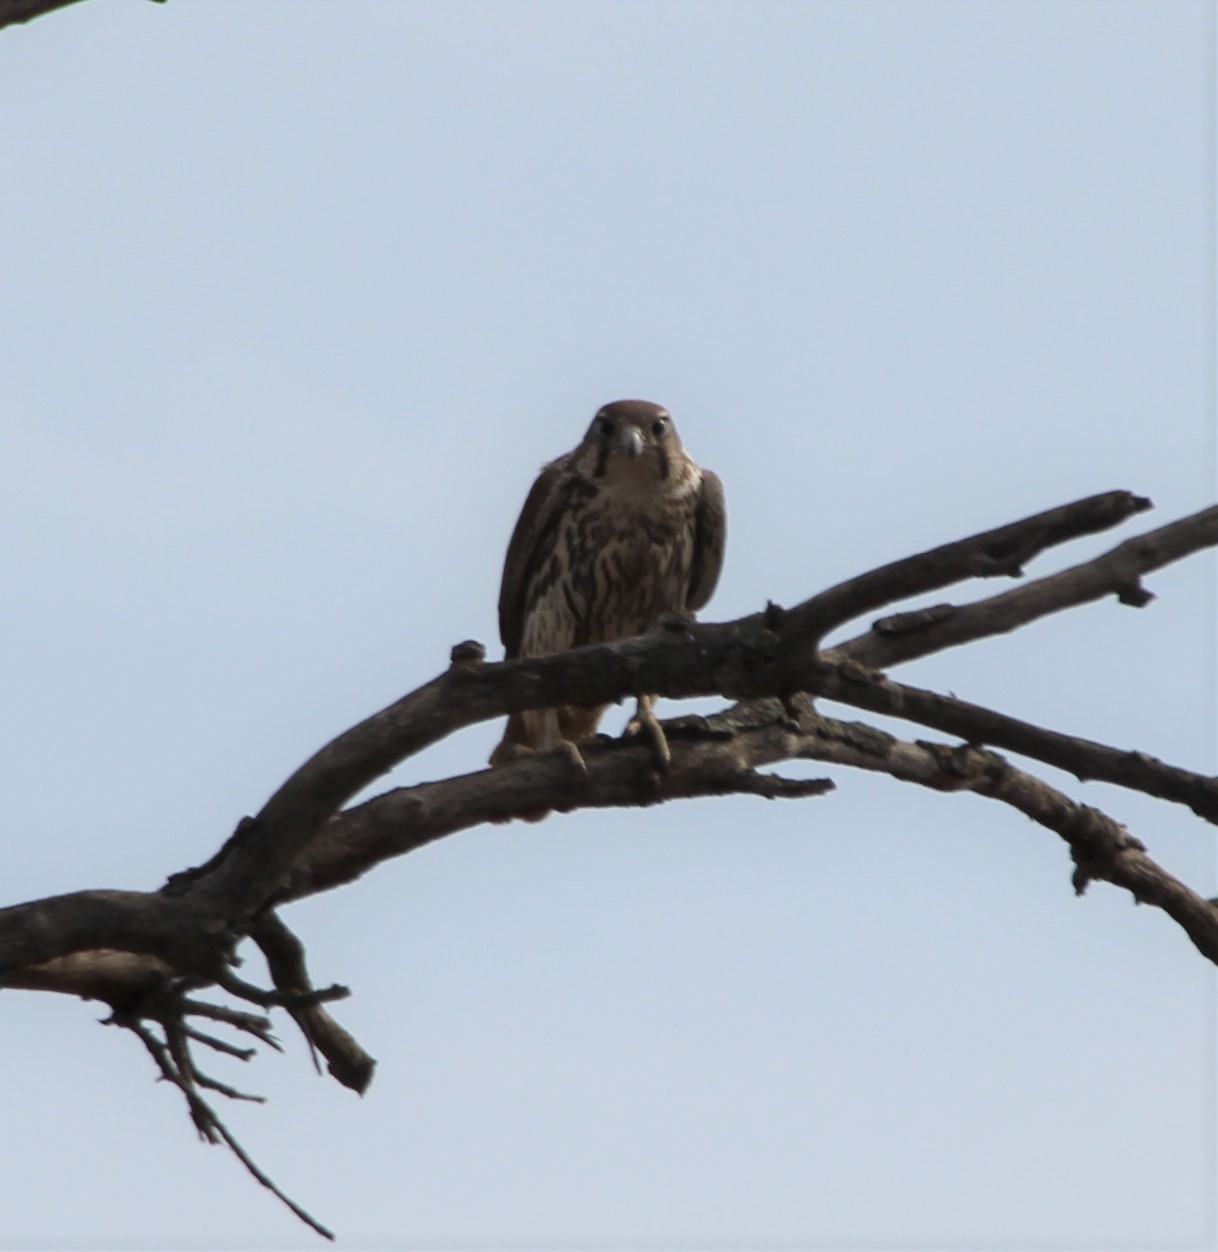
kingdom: Animalia
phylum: Chordata
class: Aves
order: Falconiformes
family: Falconidae
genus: Falco
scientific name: Falco mexicanus
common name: Prairie falcon
